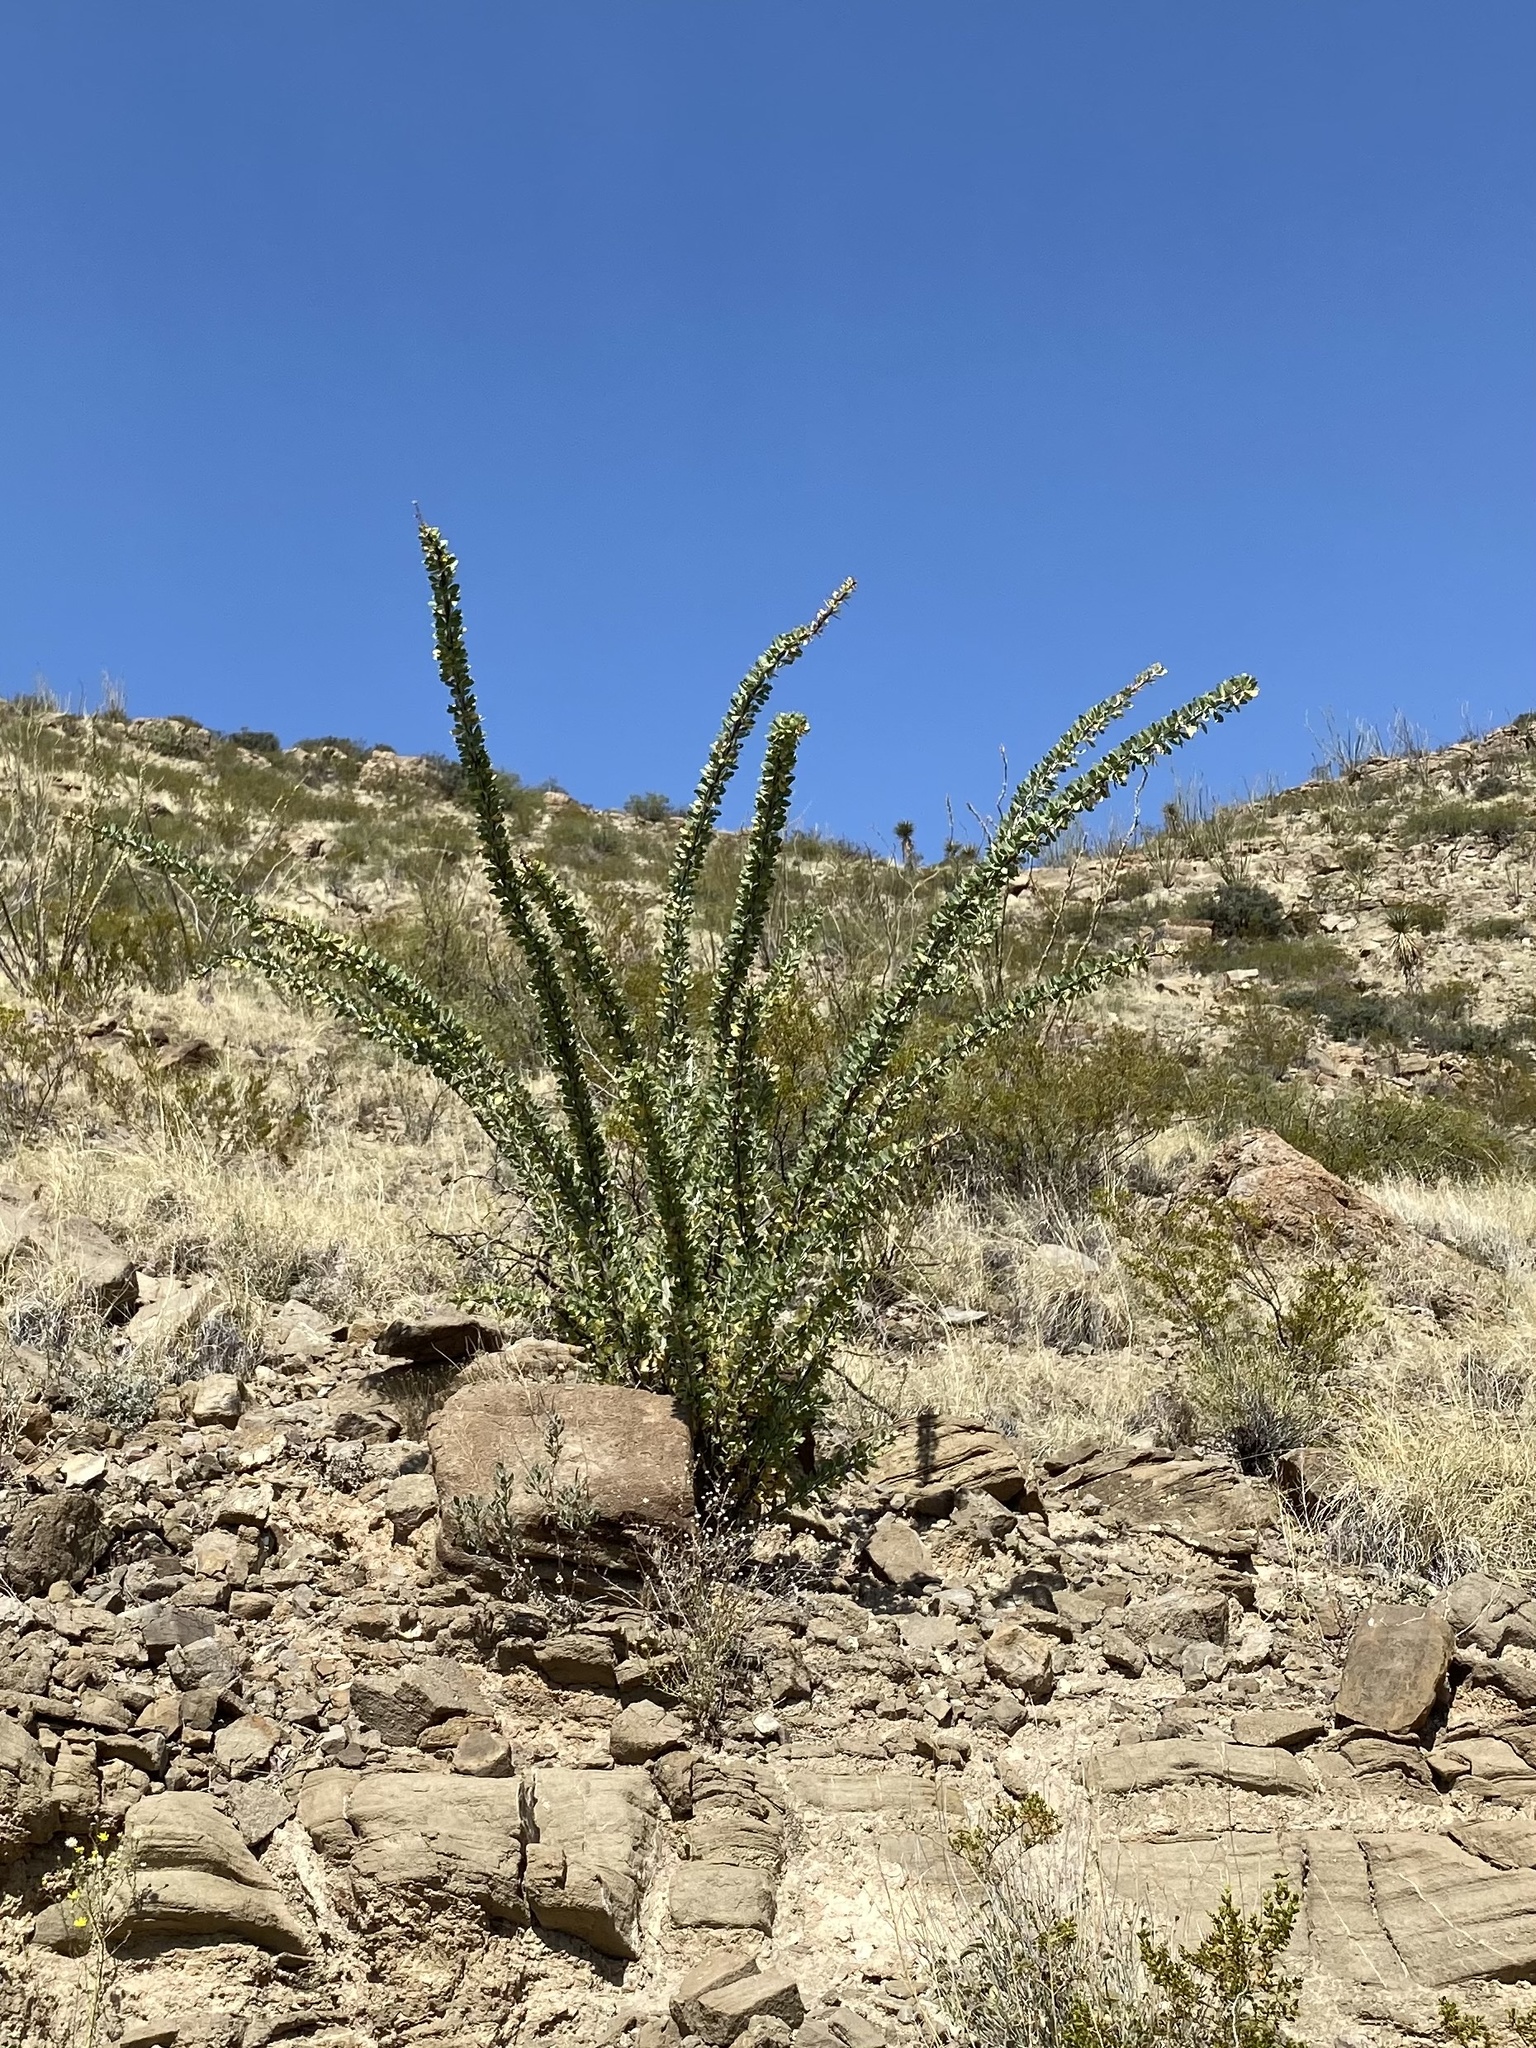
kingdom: Plantae
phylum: Tracheophyta
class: Magnoliopsida
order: Ericales
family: Fouquieriaceae
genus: Fouquieria
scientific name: Fouquieria splendens
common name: Vine-cactus
